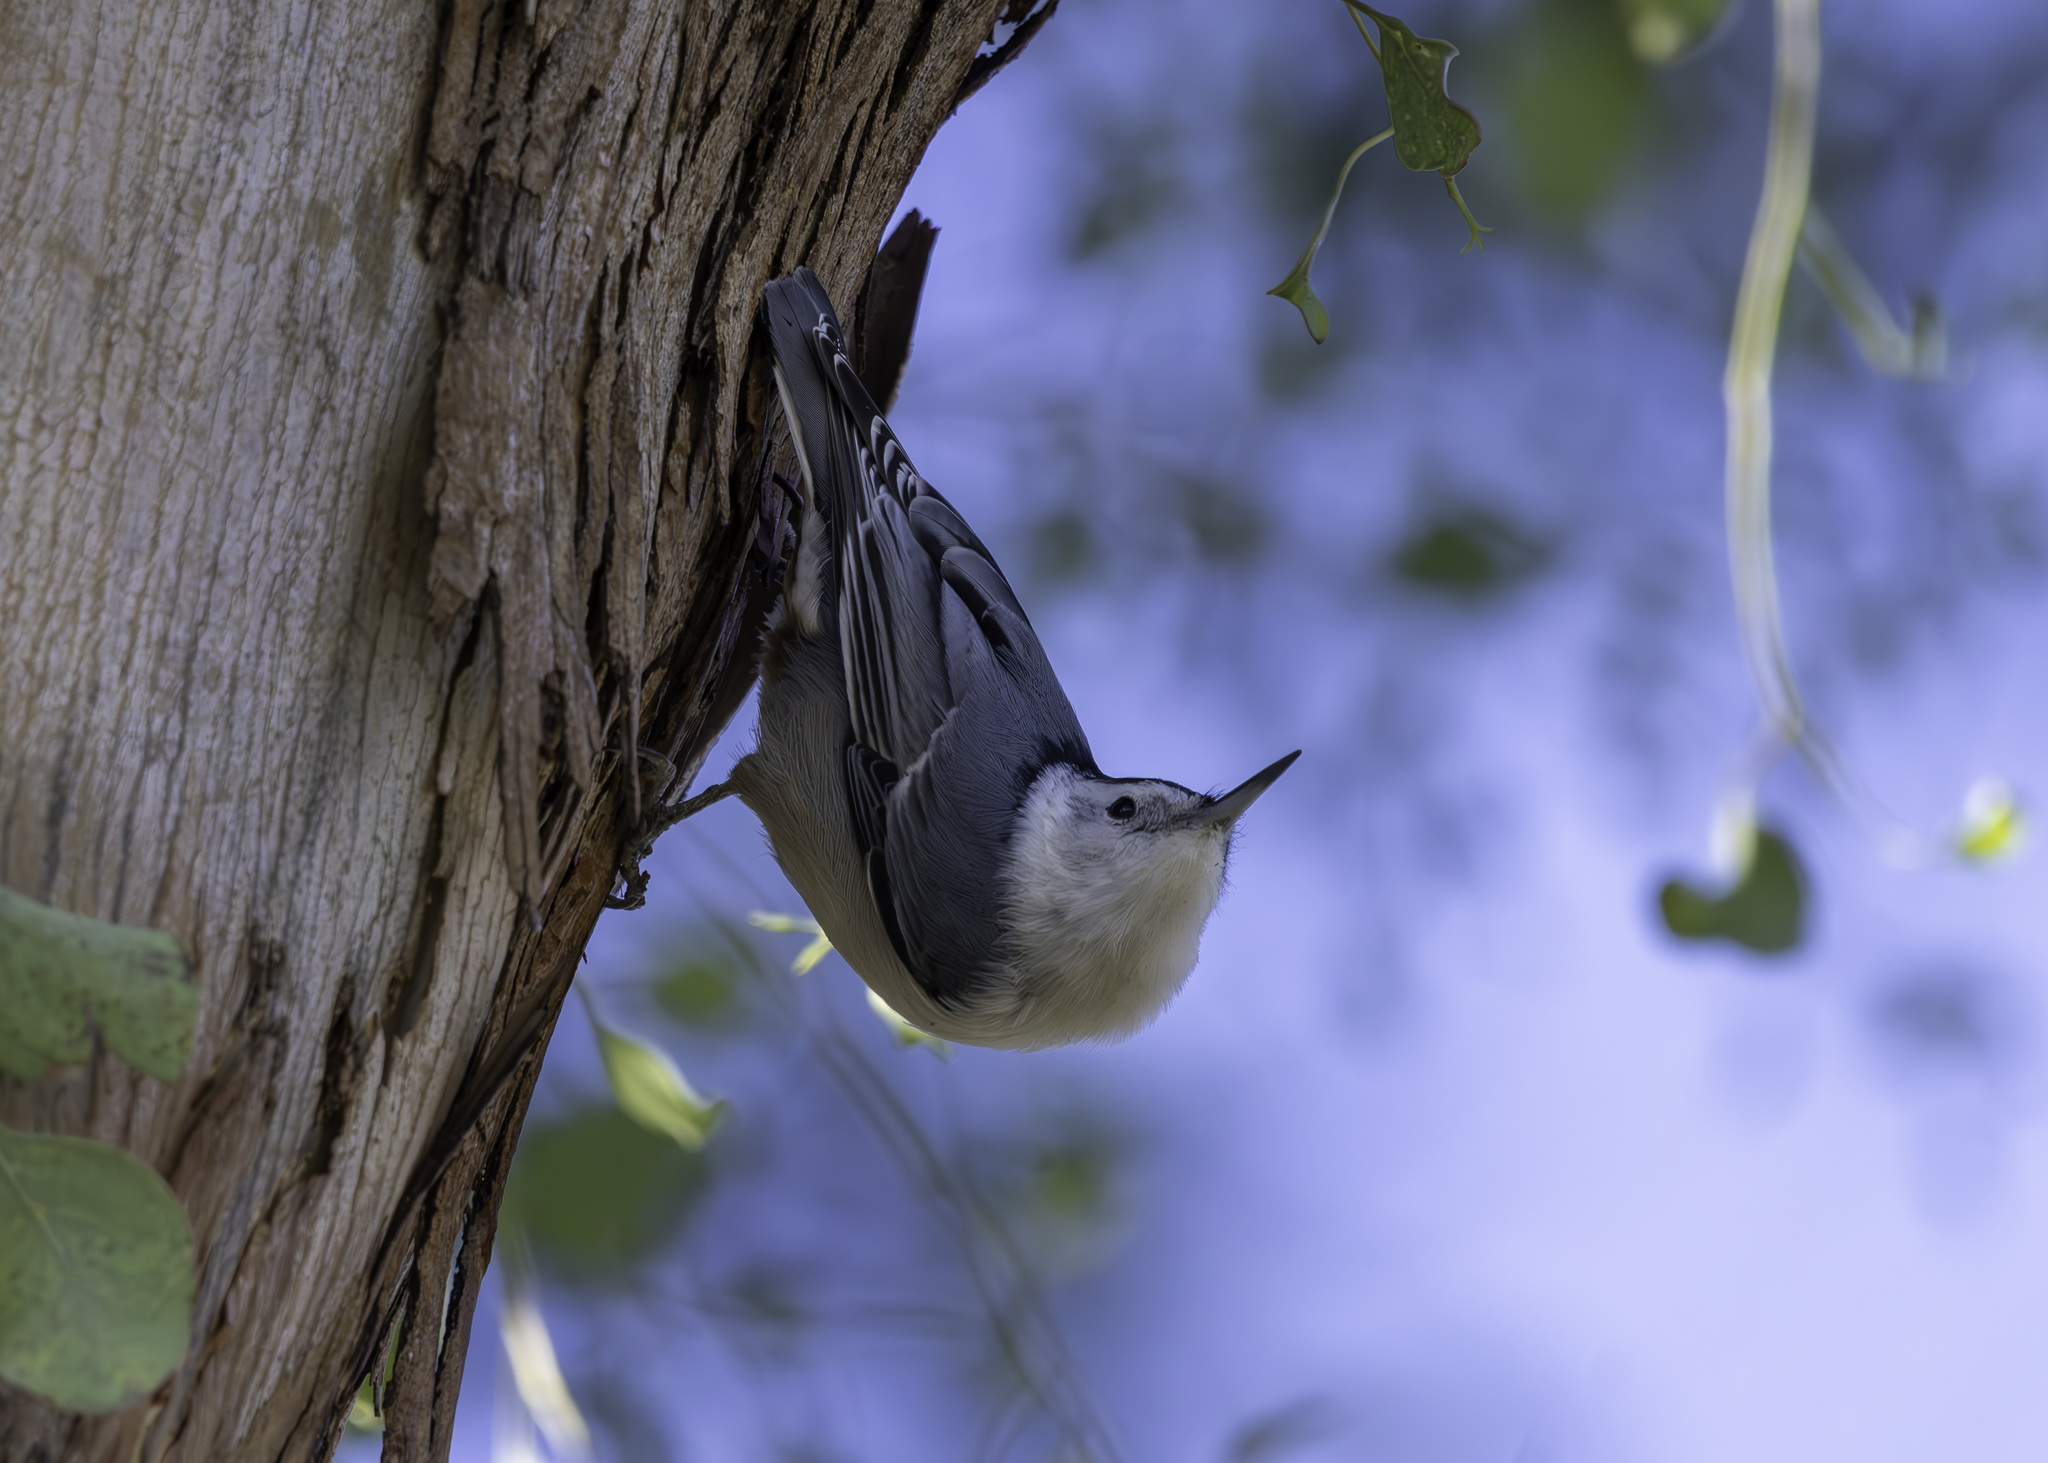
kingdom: Animalia
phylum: Chordata
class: Aves
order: Passeriformes
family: Sittidae
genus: Sitta
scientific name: Sitta carolinensis
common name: White-breasted nuthatch
